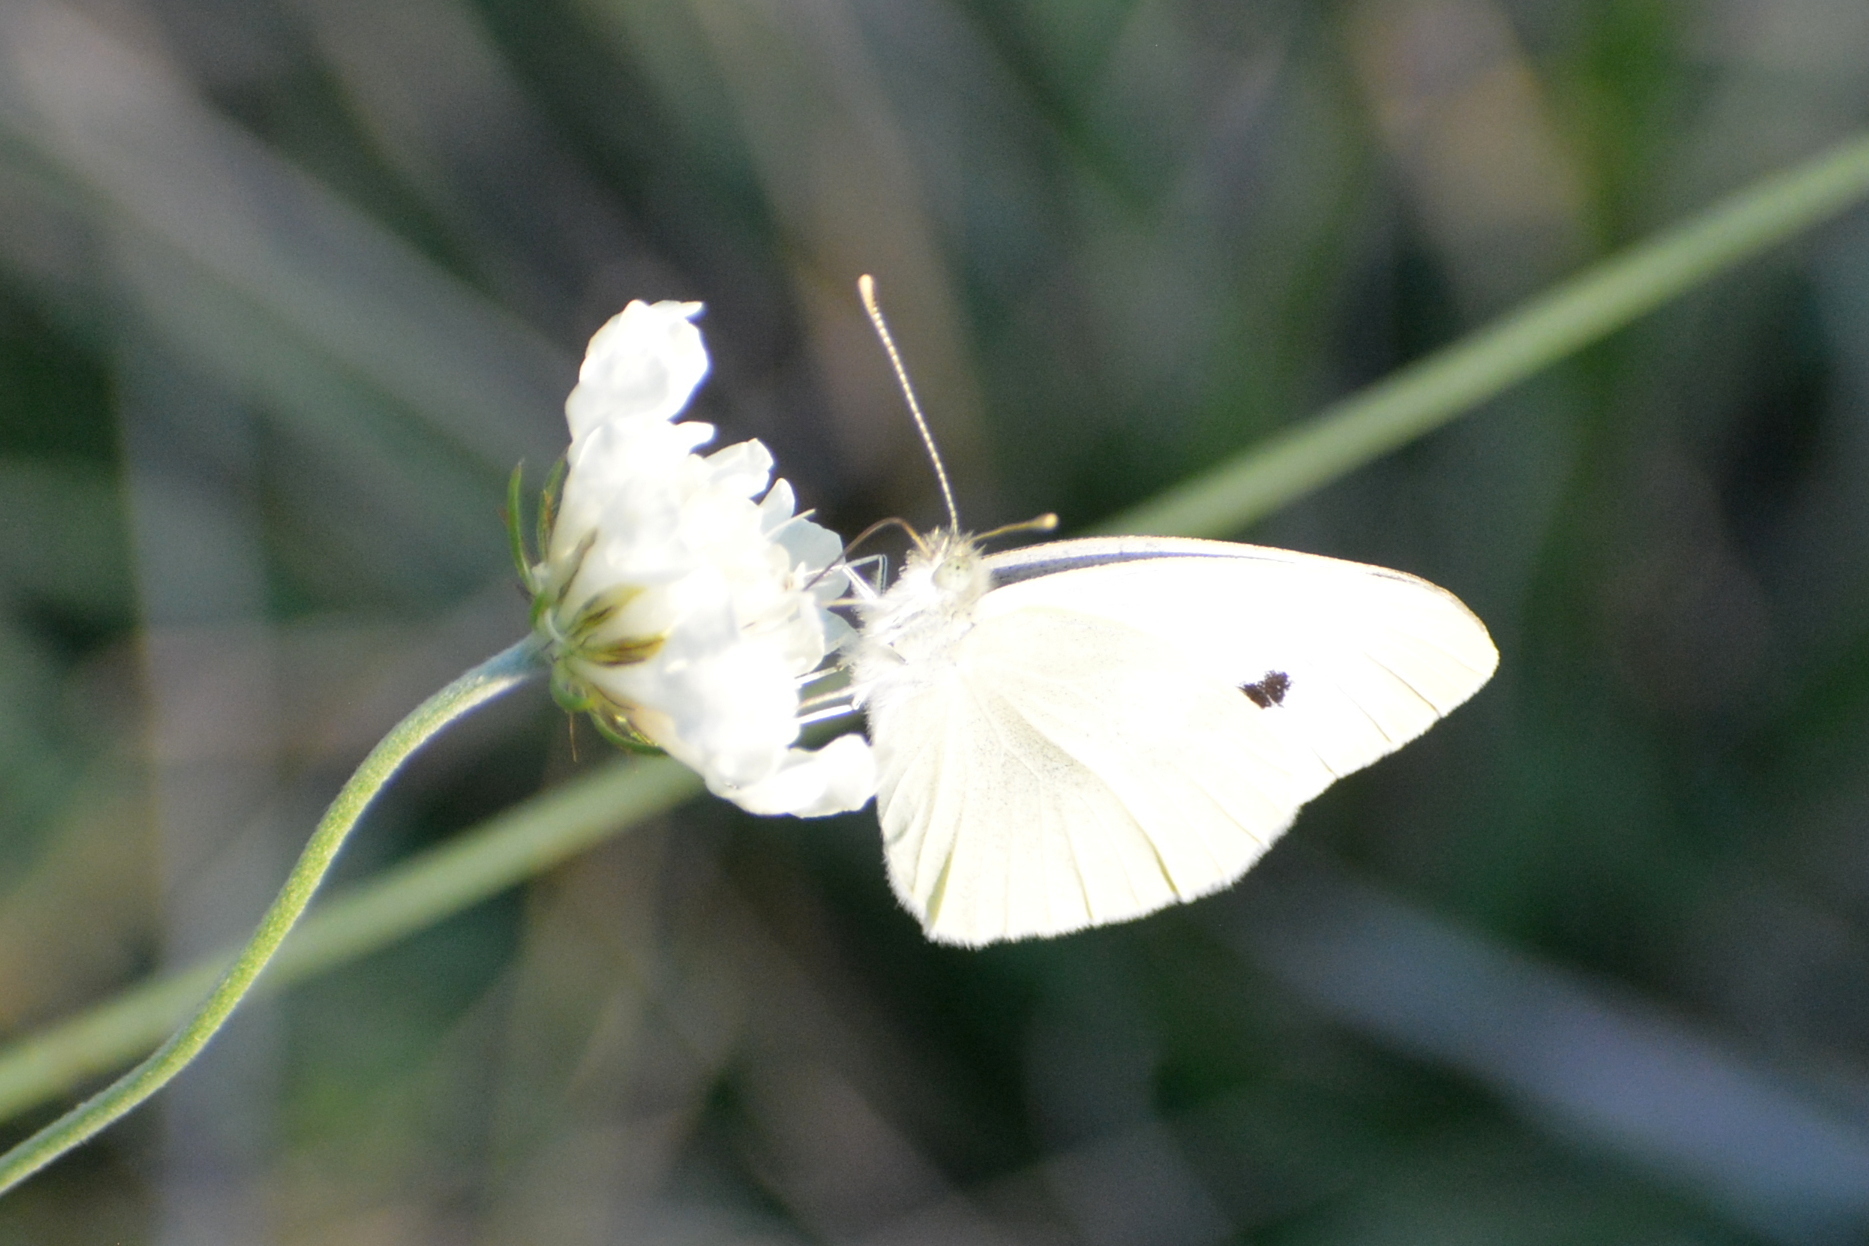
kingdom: Animalia
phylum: Arthropoda
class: Insecta
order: Lepidoptera
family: Pieridae
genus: Pieris
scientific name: Pieris rapae
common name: Small white
